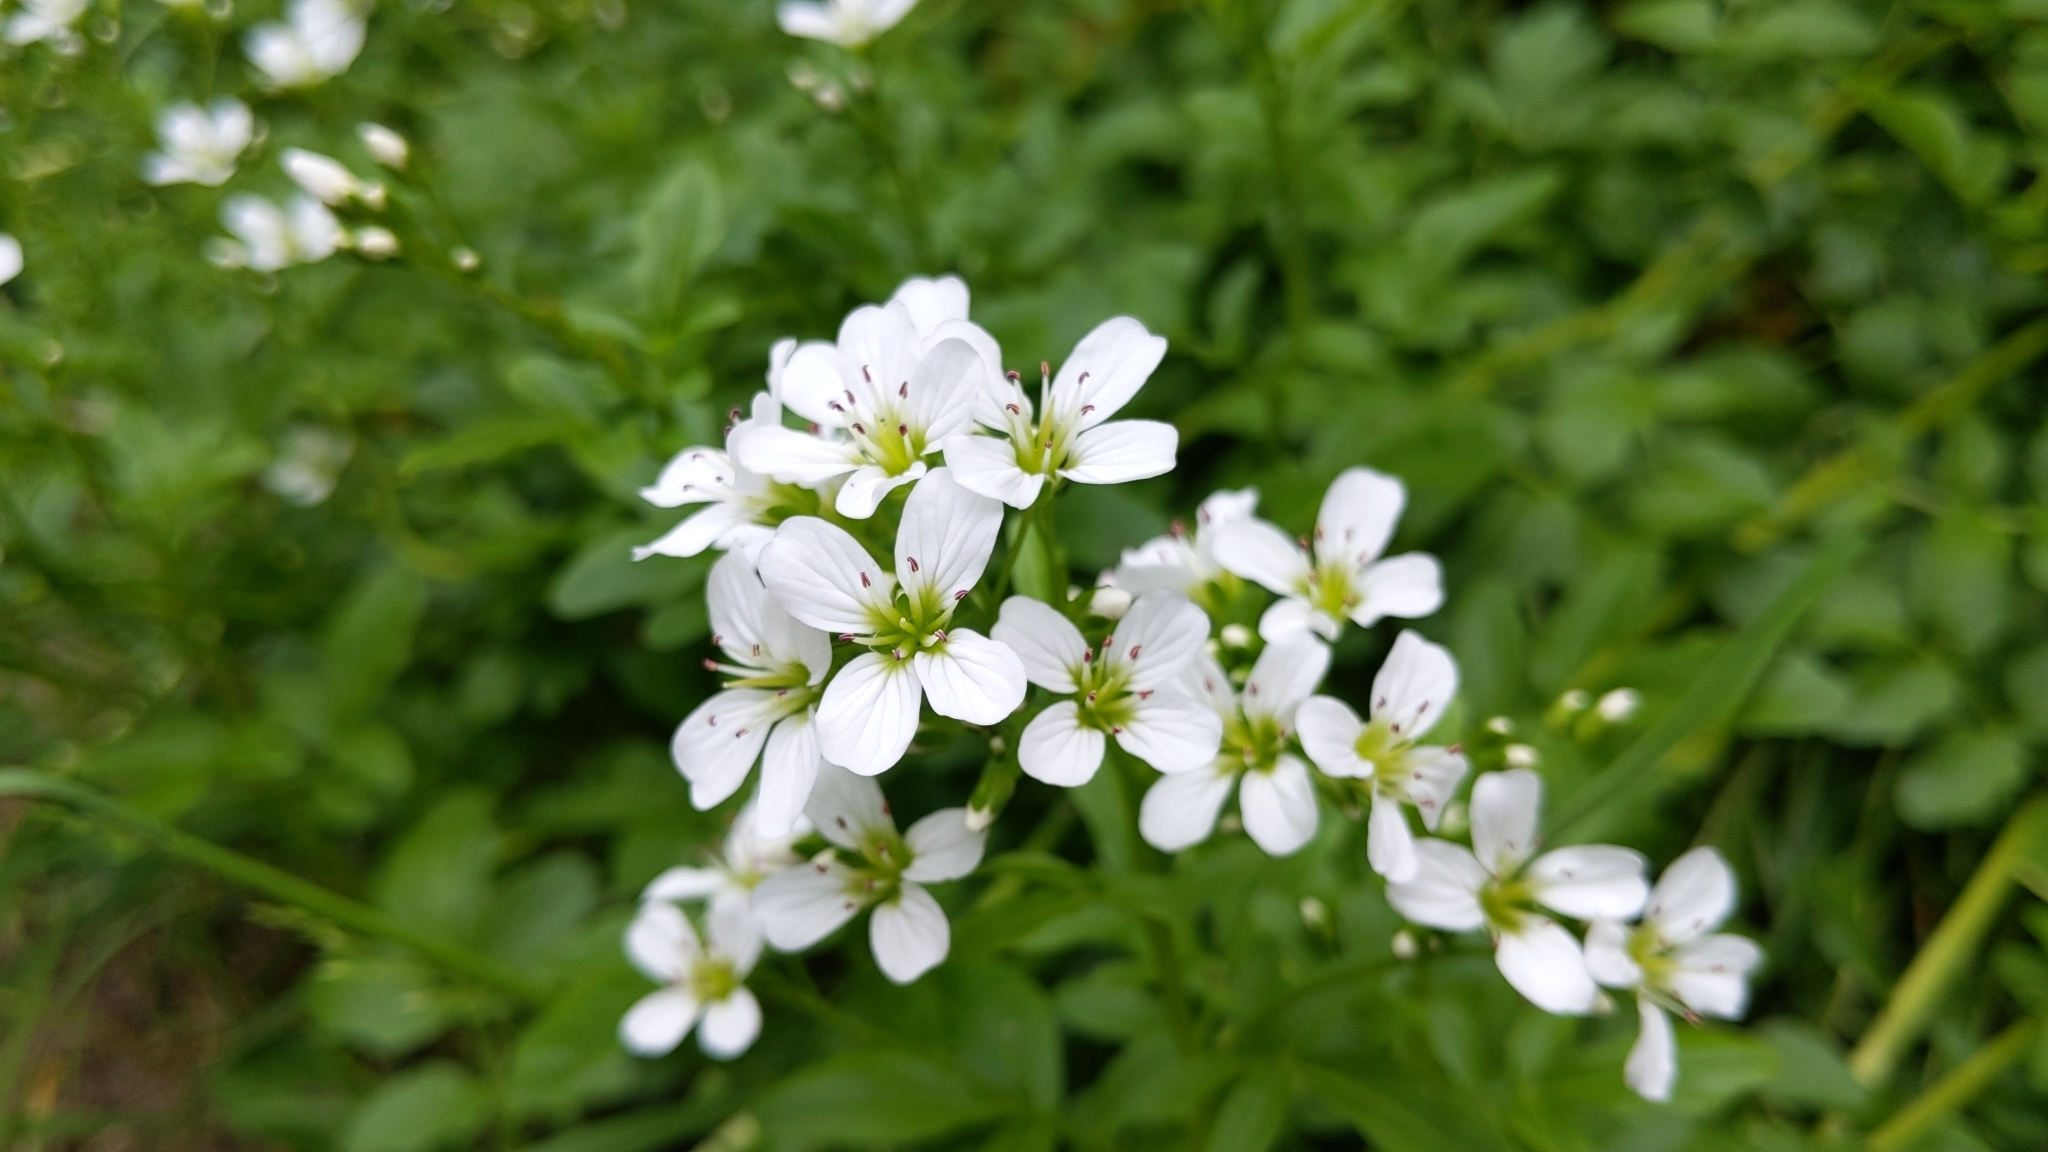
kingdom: Plantae
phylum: Tracheophyta
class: Magnoliopsida
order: Brassicales
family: Brassicaceae
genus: Cardamine
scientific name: Cardamine amara
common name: Large bitter-cress
